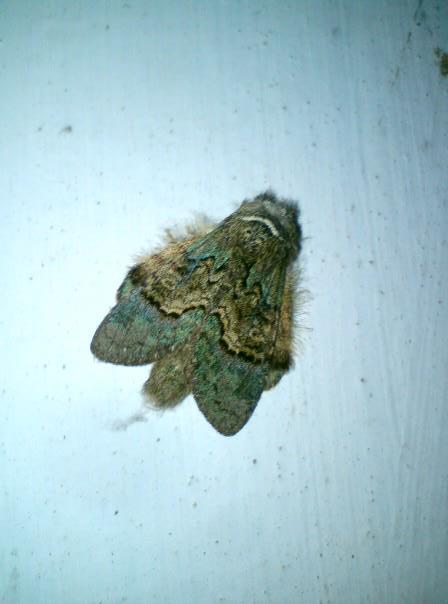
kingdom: Animalia
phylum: Arthropoda
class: Insecta
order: Lepidoptera
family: Notodontidae
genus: Syntypistis
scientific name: Syntypistis pallidifascia
